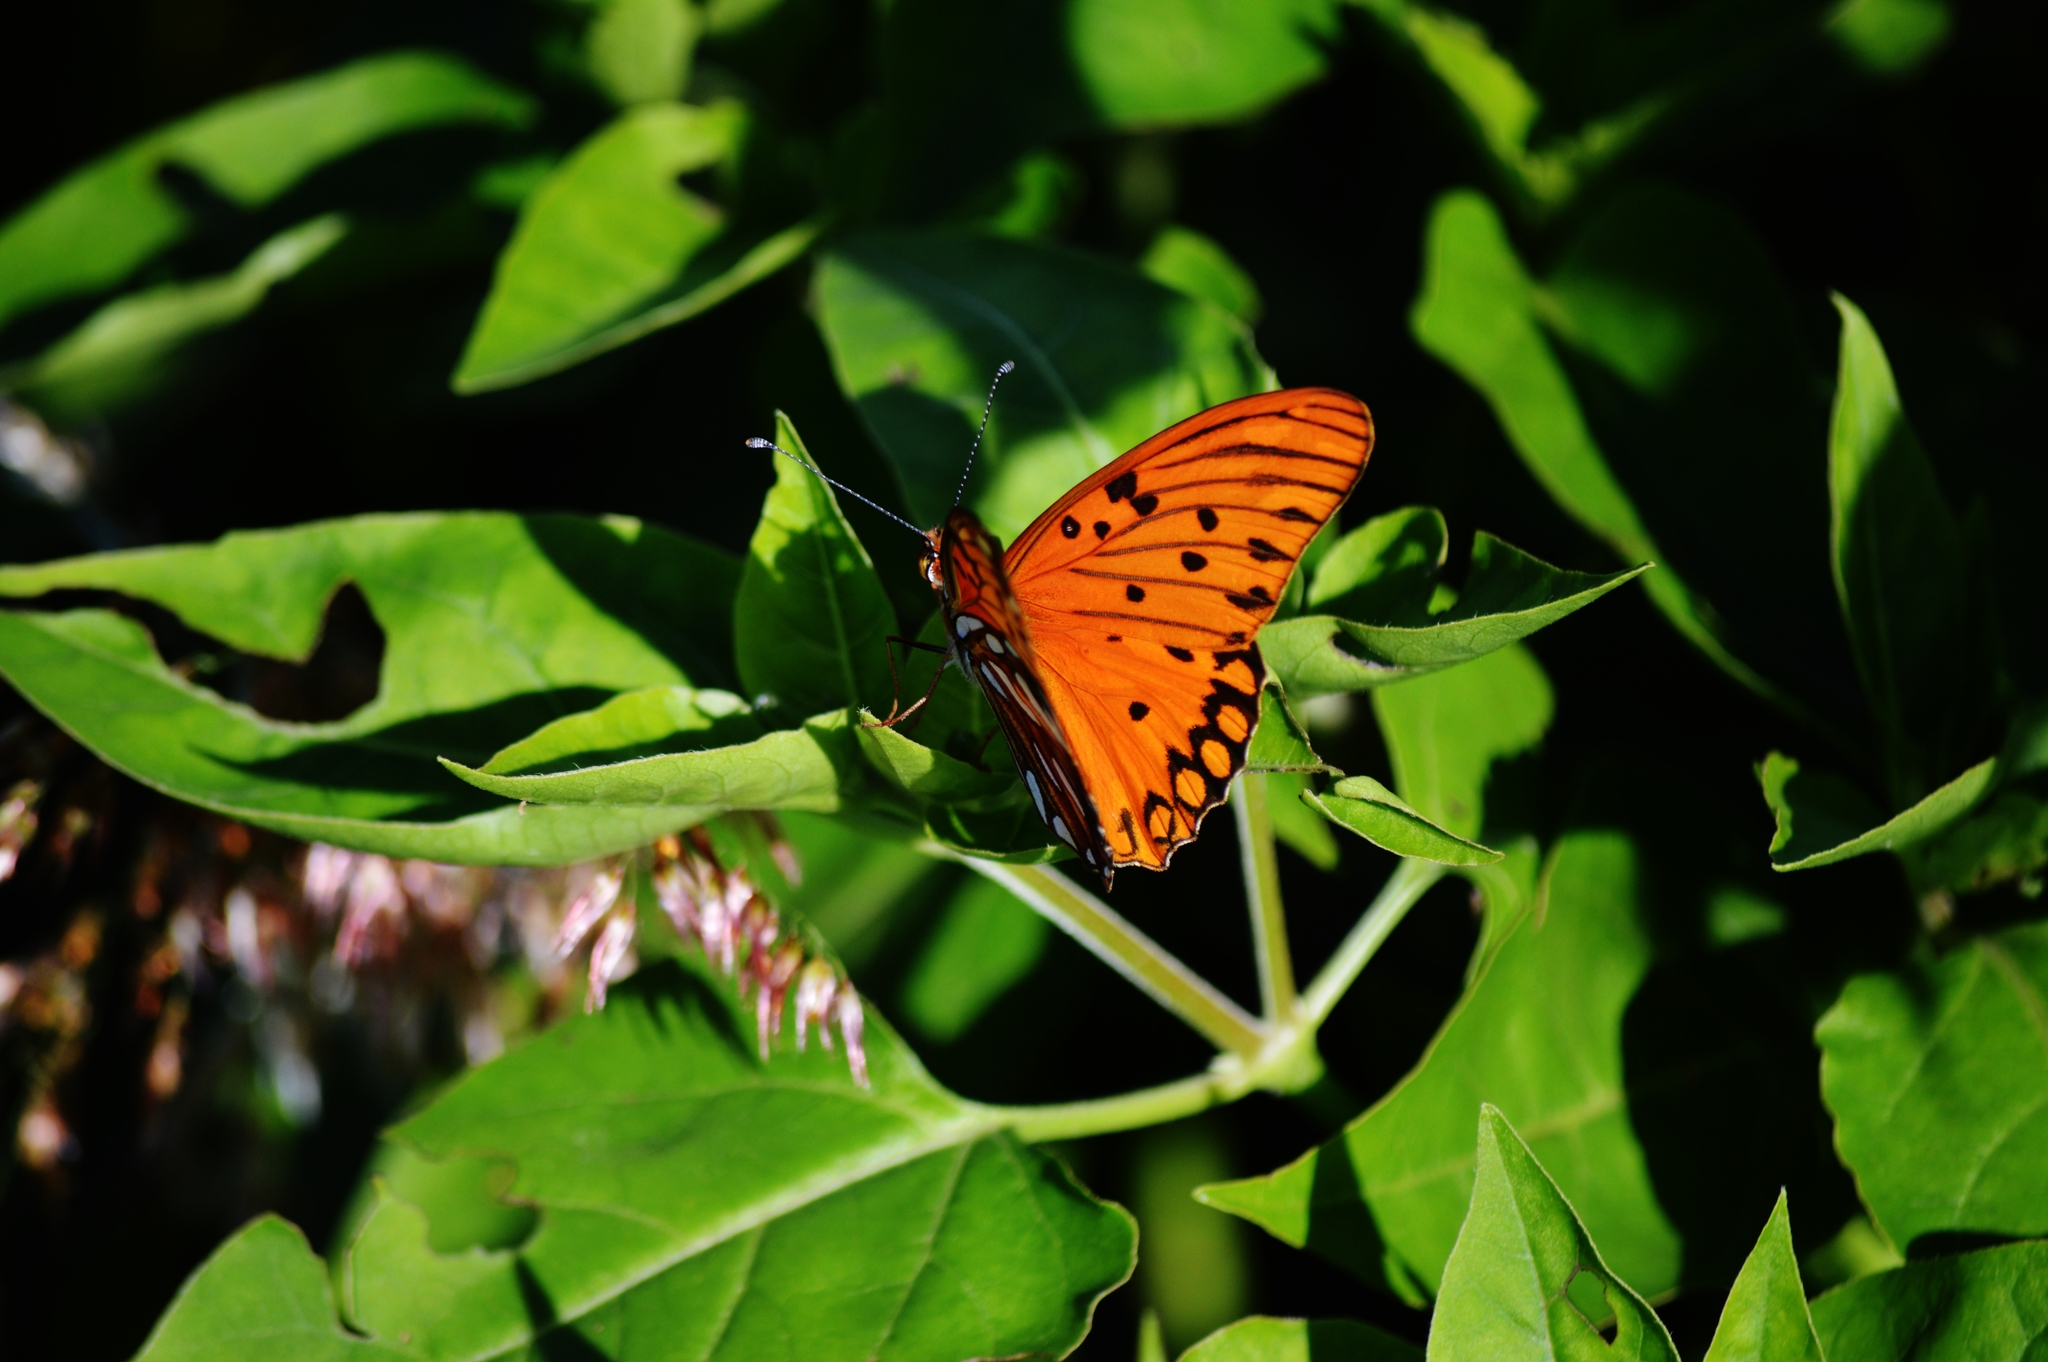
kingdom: Animalia
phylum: Arthropoda
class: Insecta
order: Lepidoptera
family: Nymphalidae
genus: Dione
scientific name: Dione vanillae
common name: Gulf fritillary
